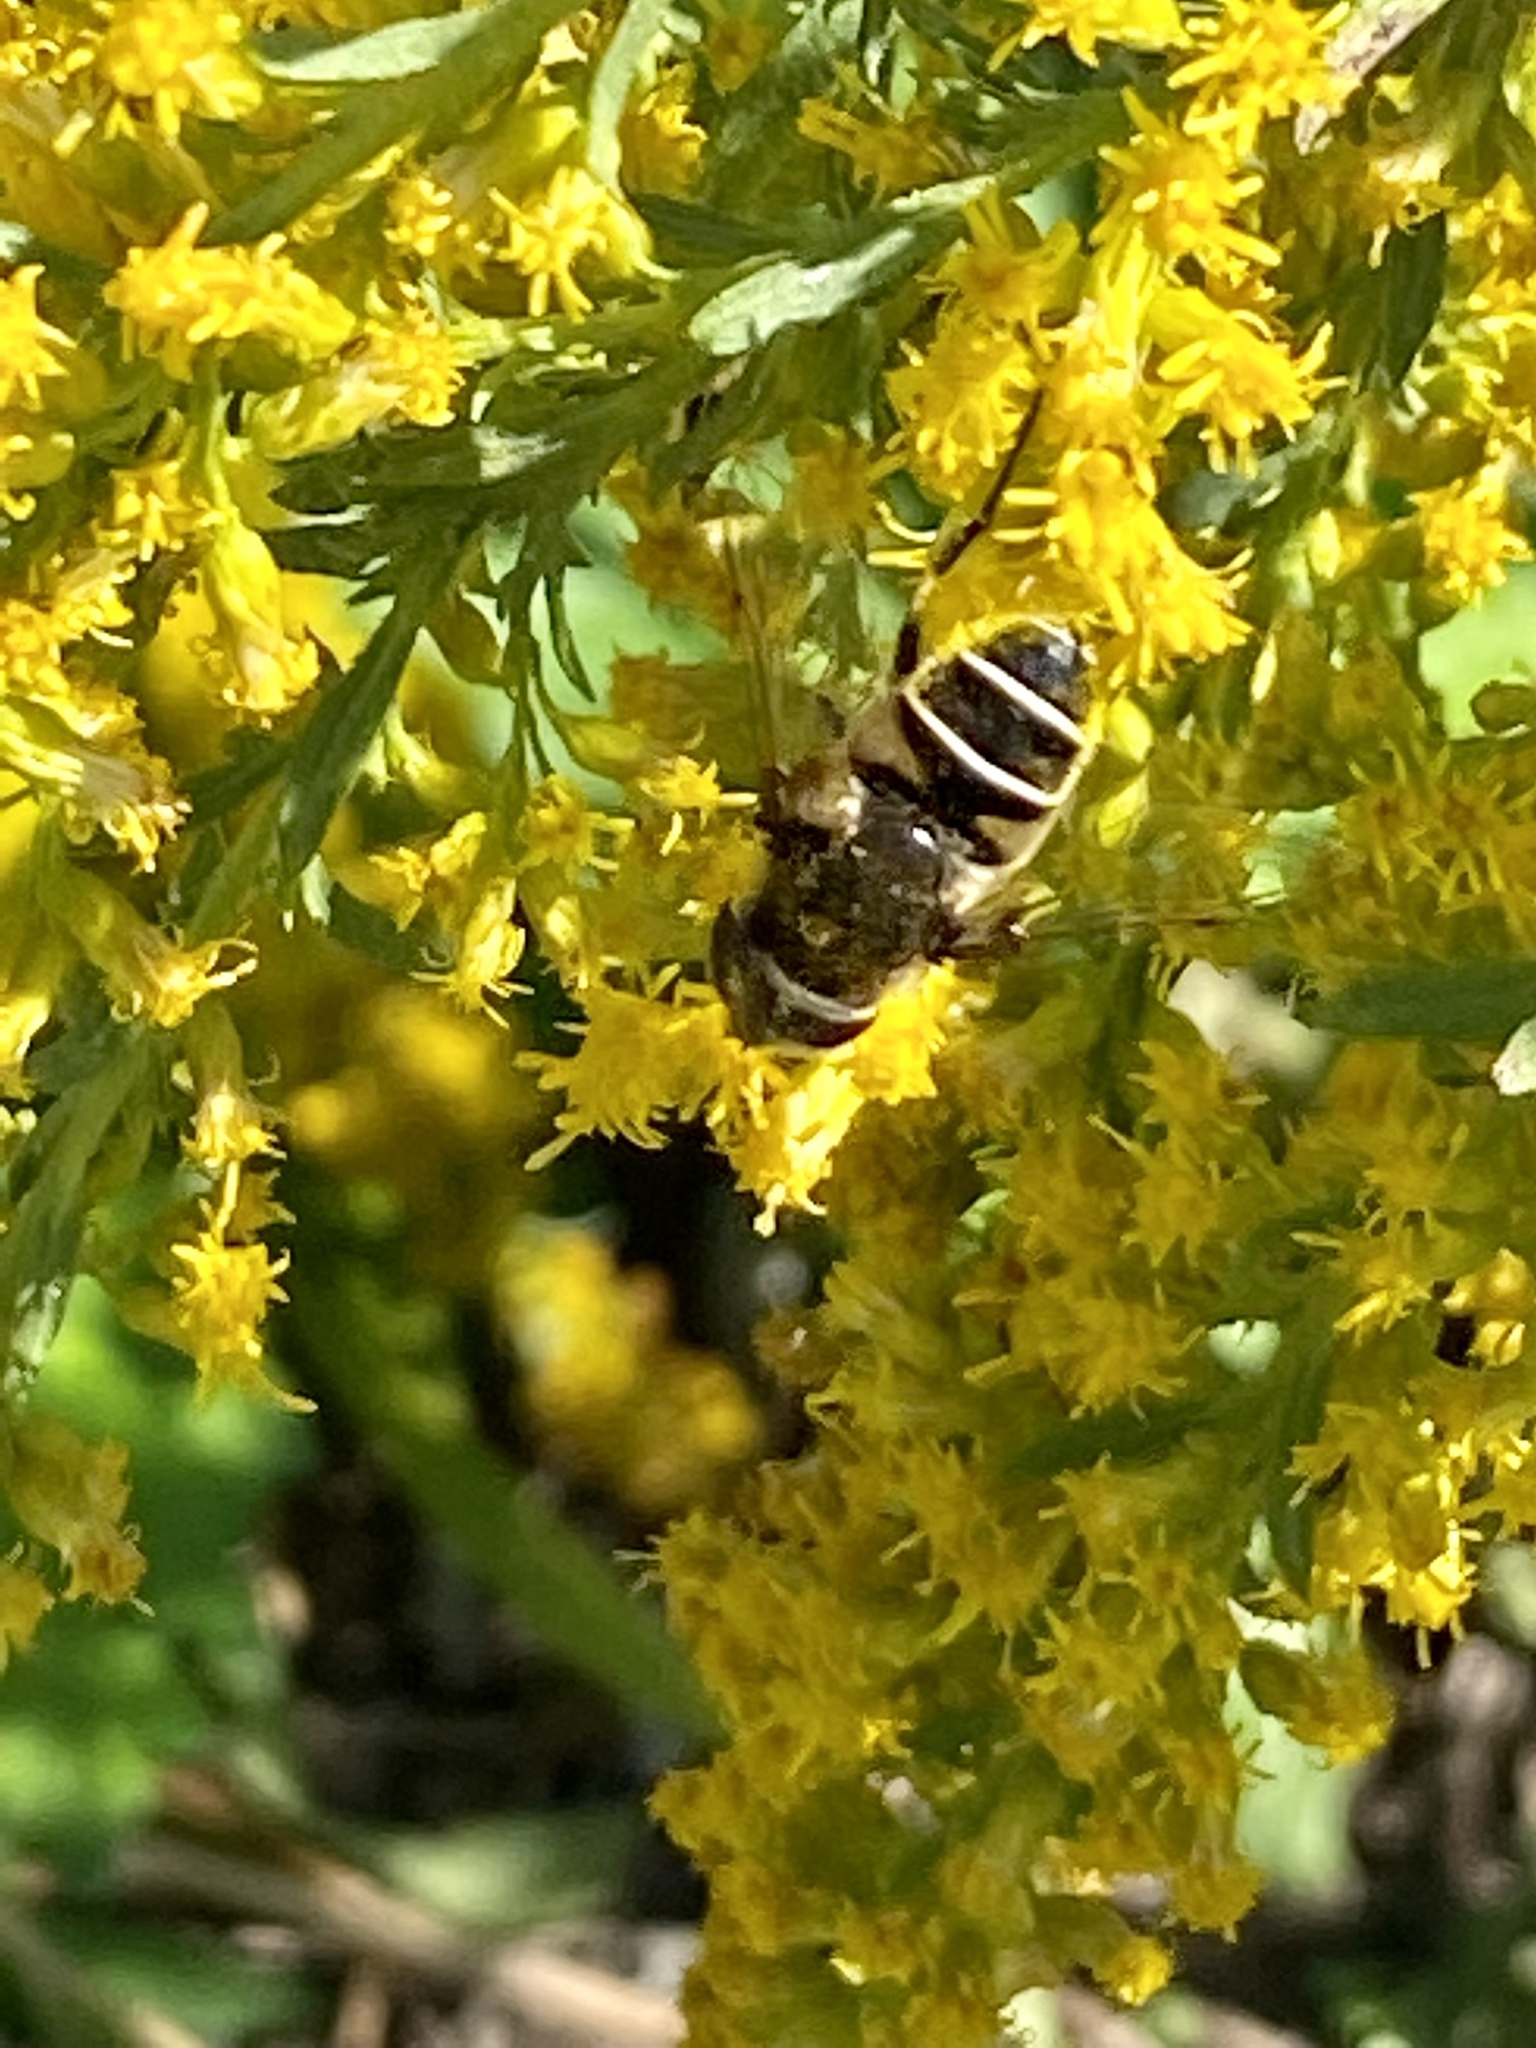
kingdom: Animalia
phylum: Arthropoda
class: Insecta
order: Diptera
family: Syrphidae
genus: Eristalis
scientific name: Eristalis dimidiata
